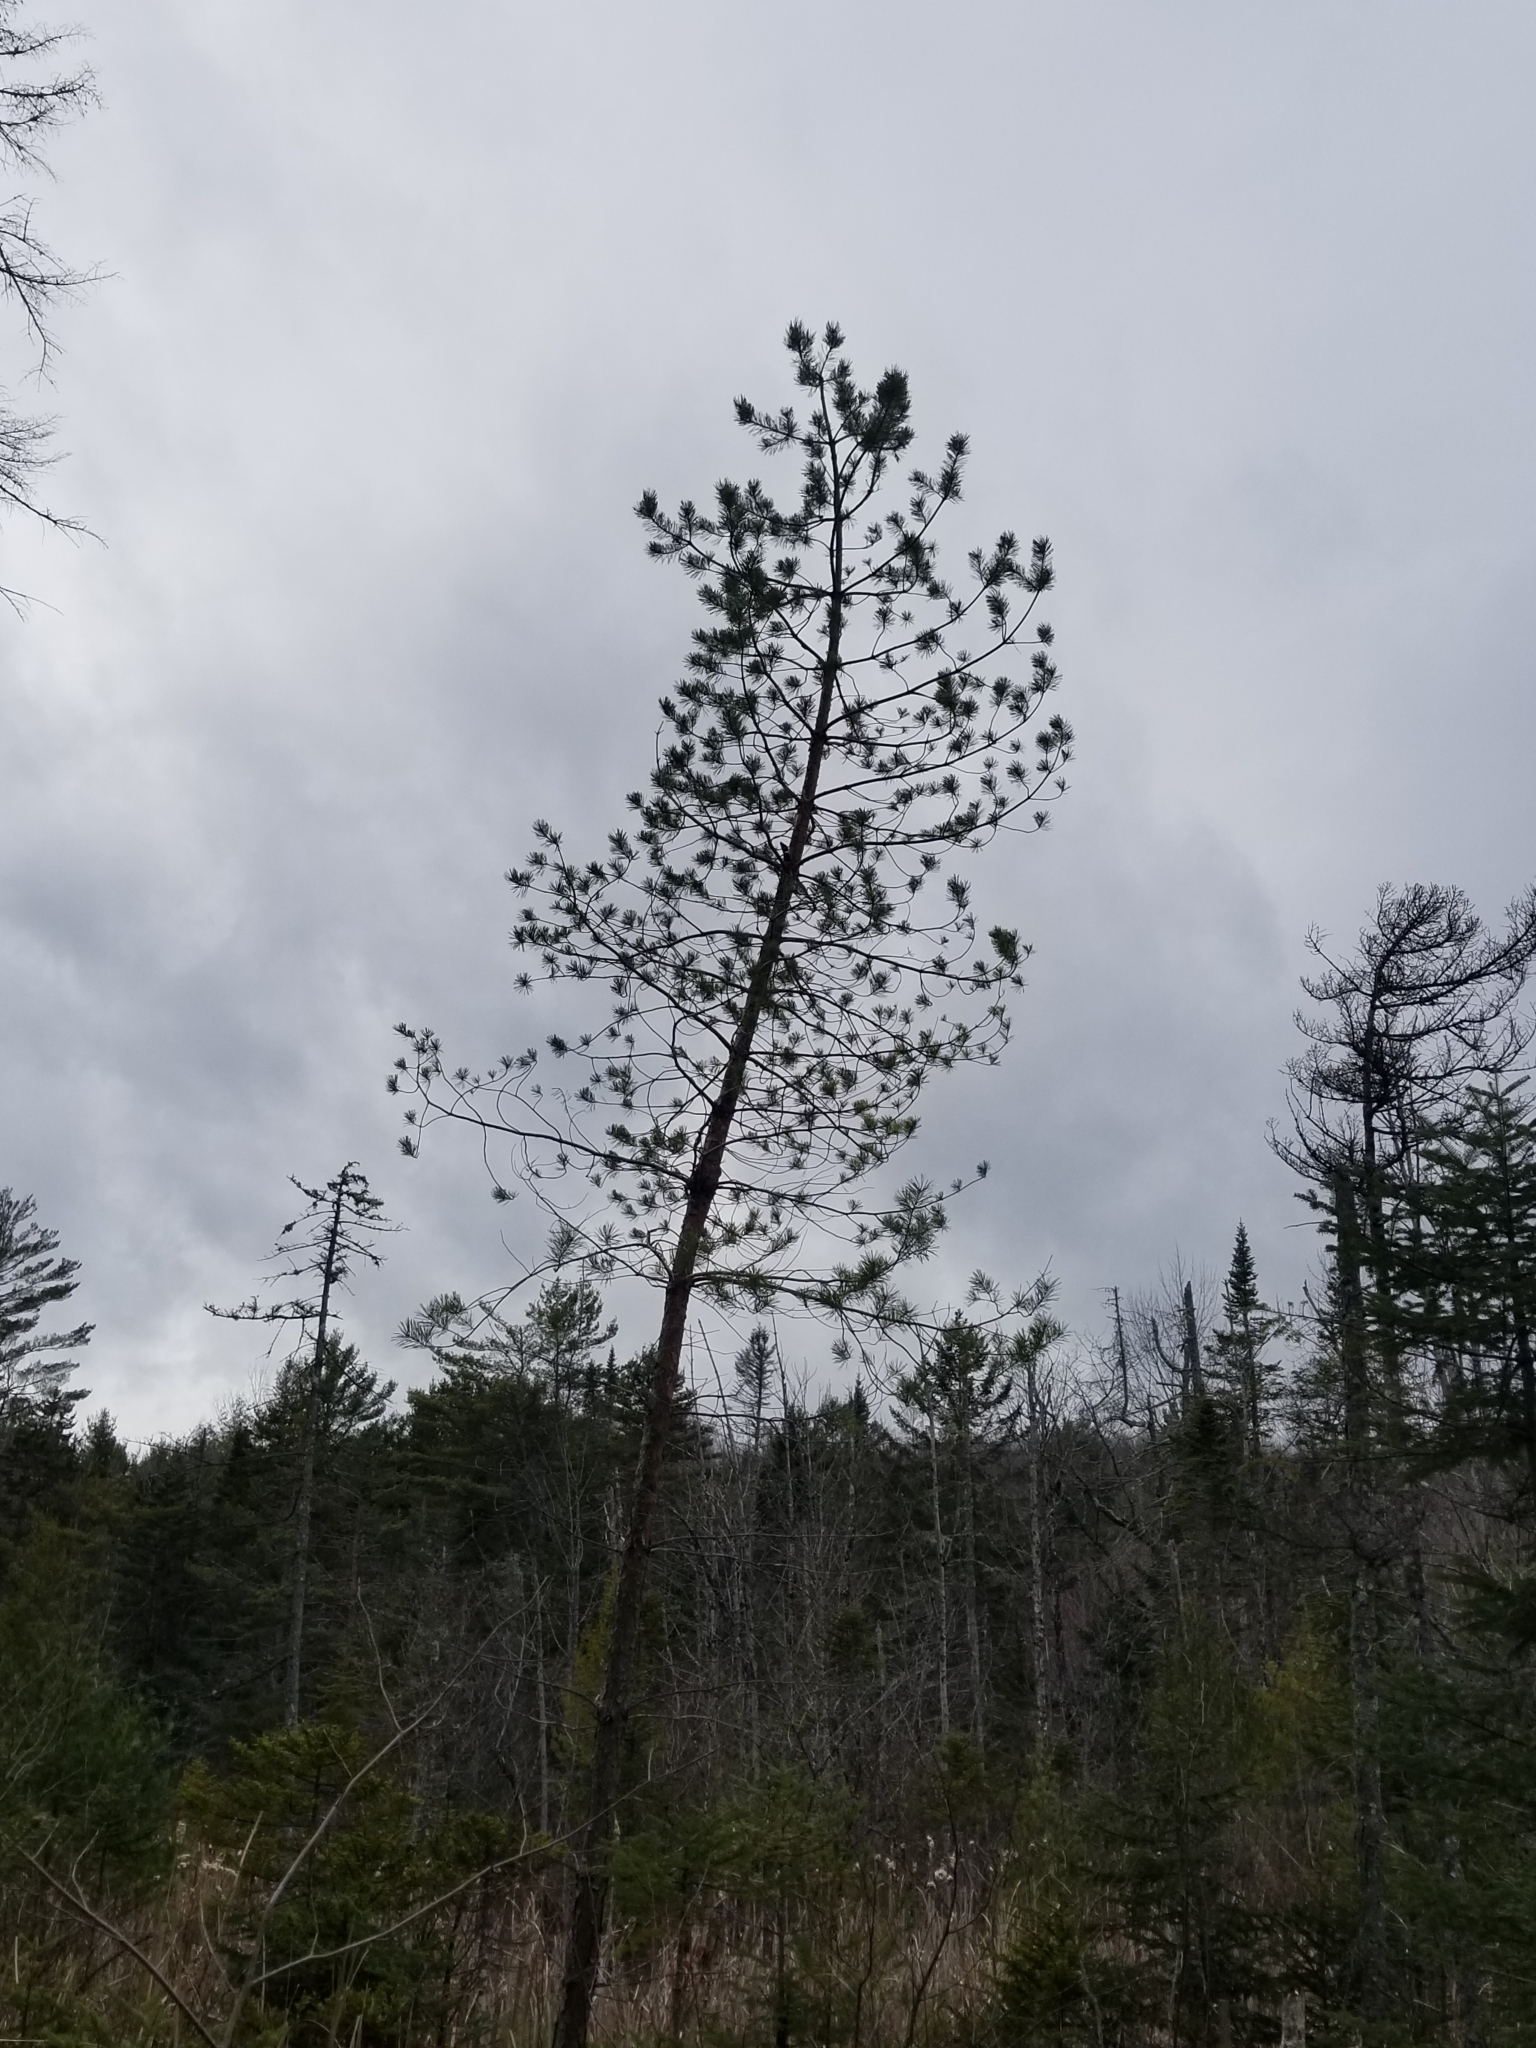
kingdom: Plantae
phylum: Tracheophyta
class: Pinopsida
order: Pinales
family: Pinaceae
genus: Pinus
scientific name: Pinus resinosa
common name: Norway pine
